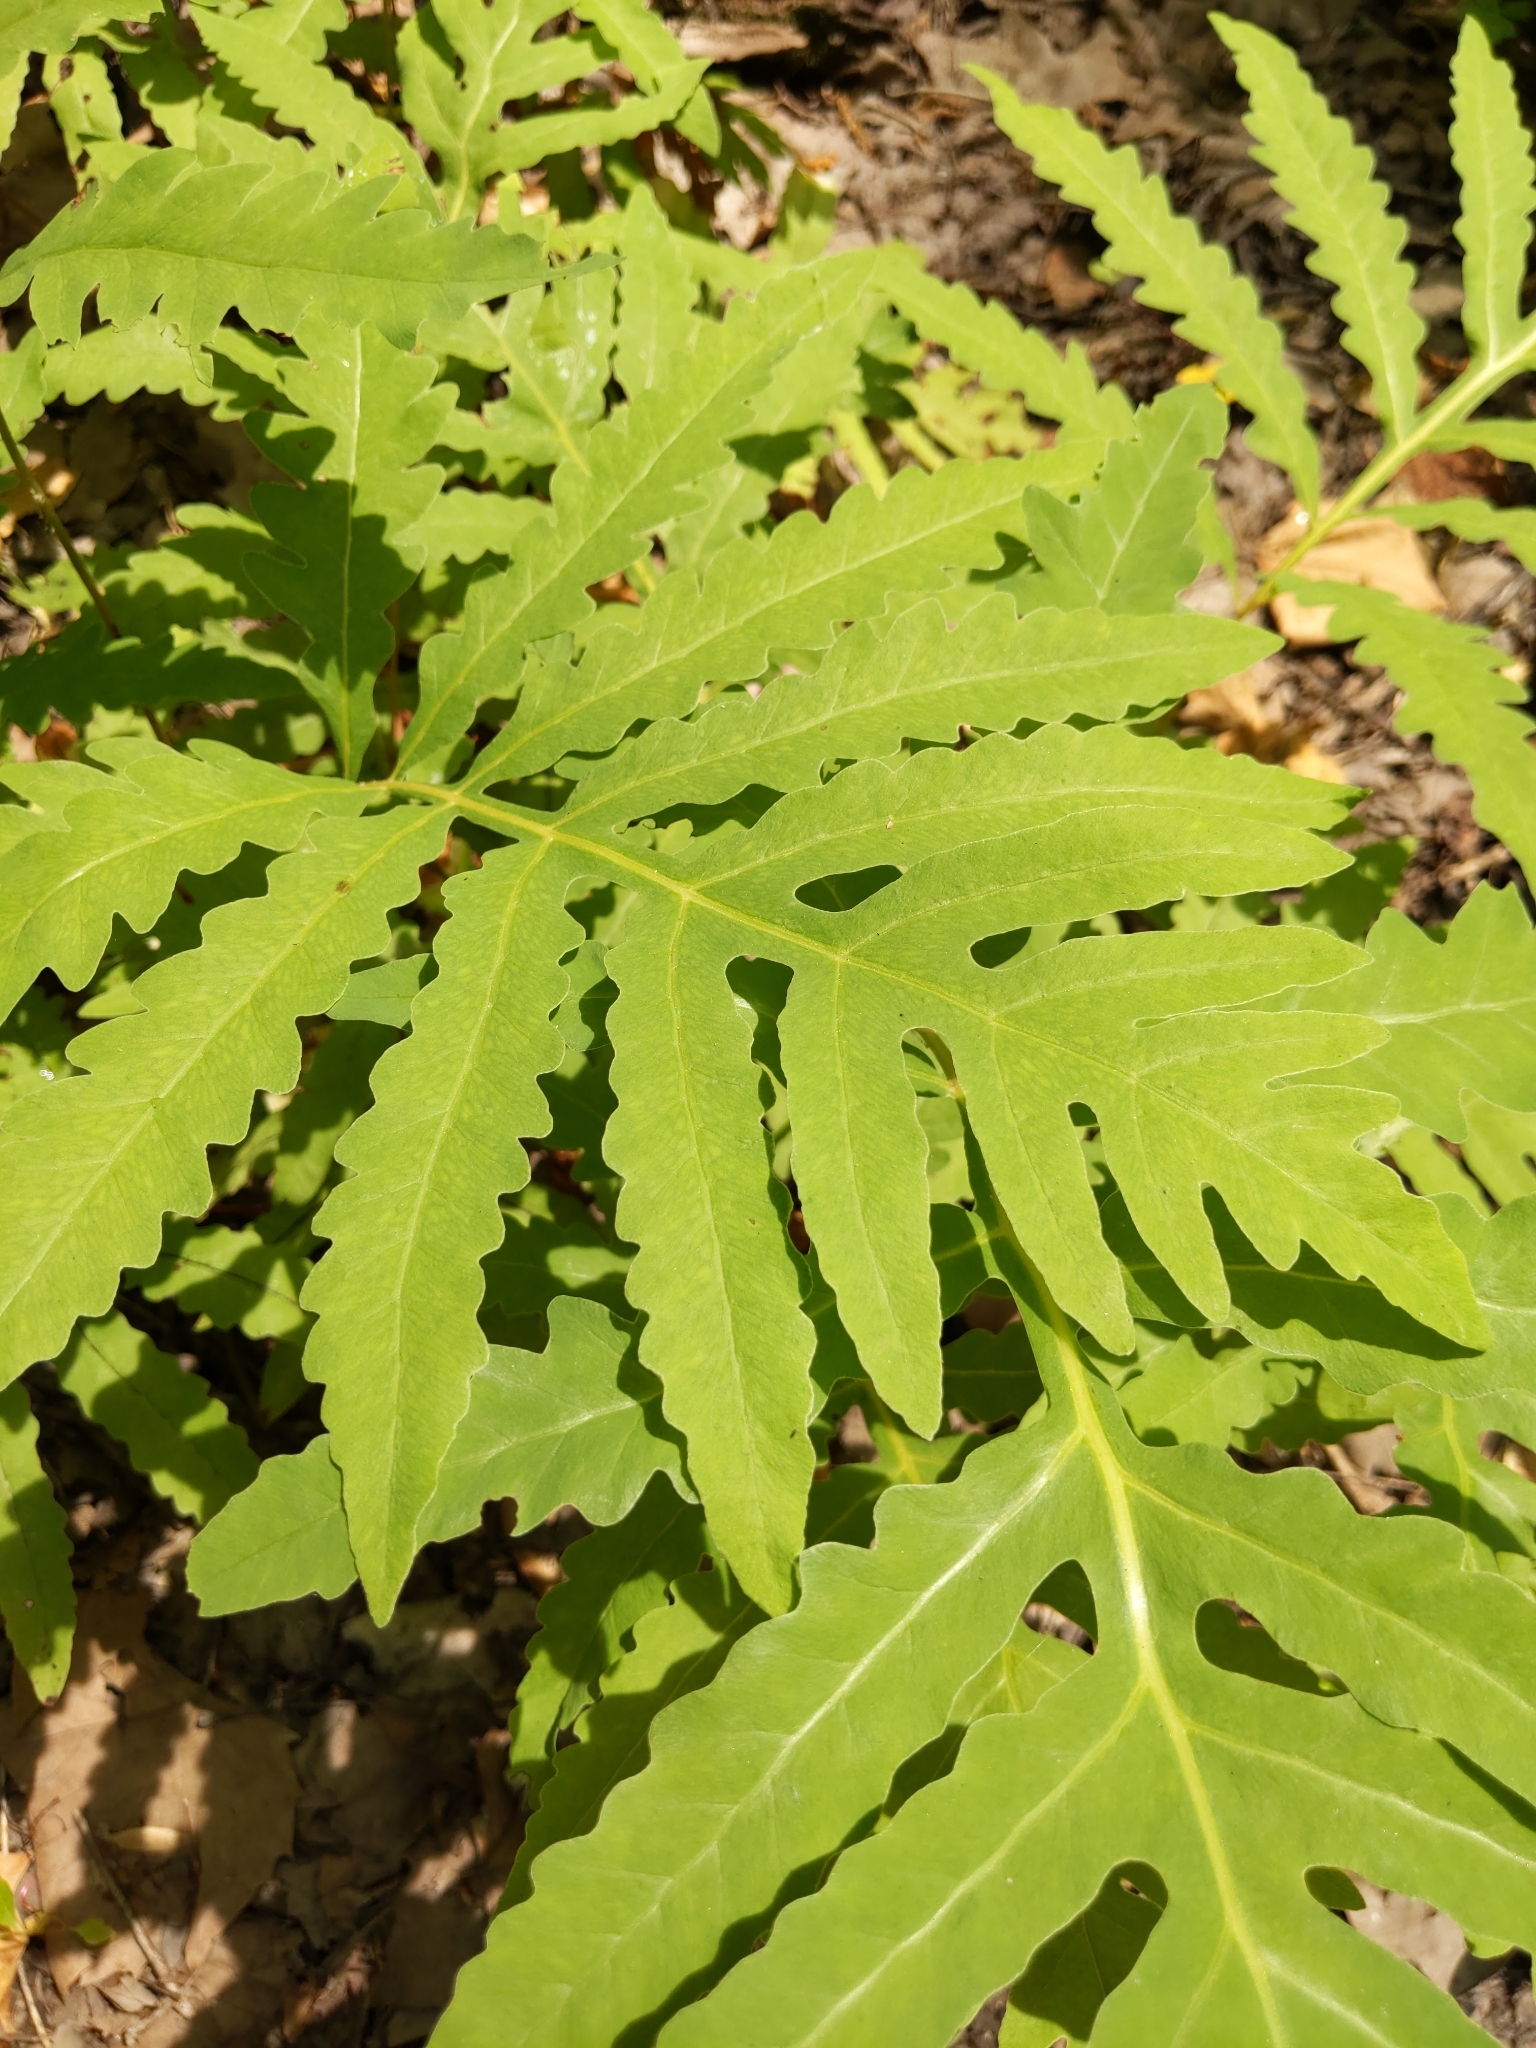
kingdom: Plantae
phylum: Tracheophyta
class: Polypodiopsida
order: Polypodiales
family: Onocleaceae
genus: Onoclea
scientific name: Onoclea sensibilis
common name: Sensitive fern
